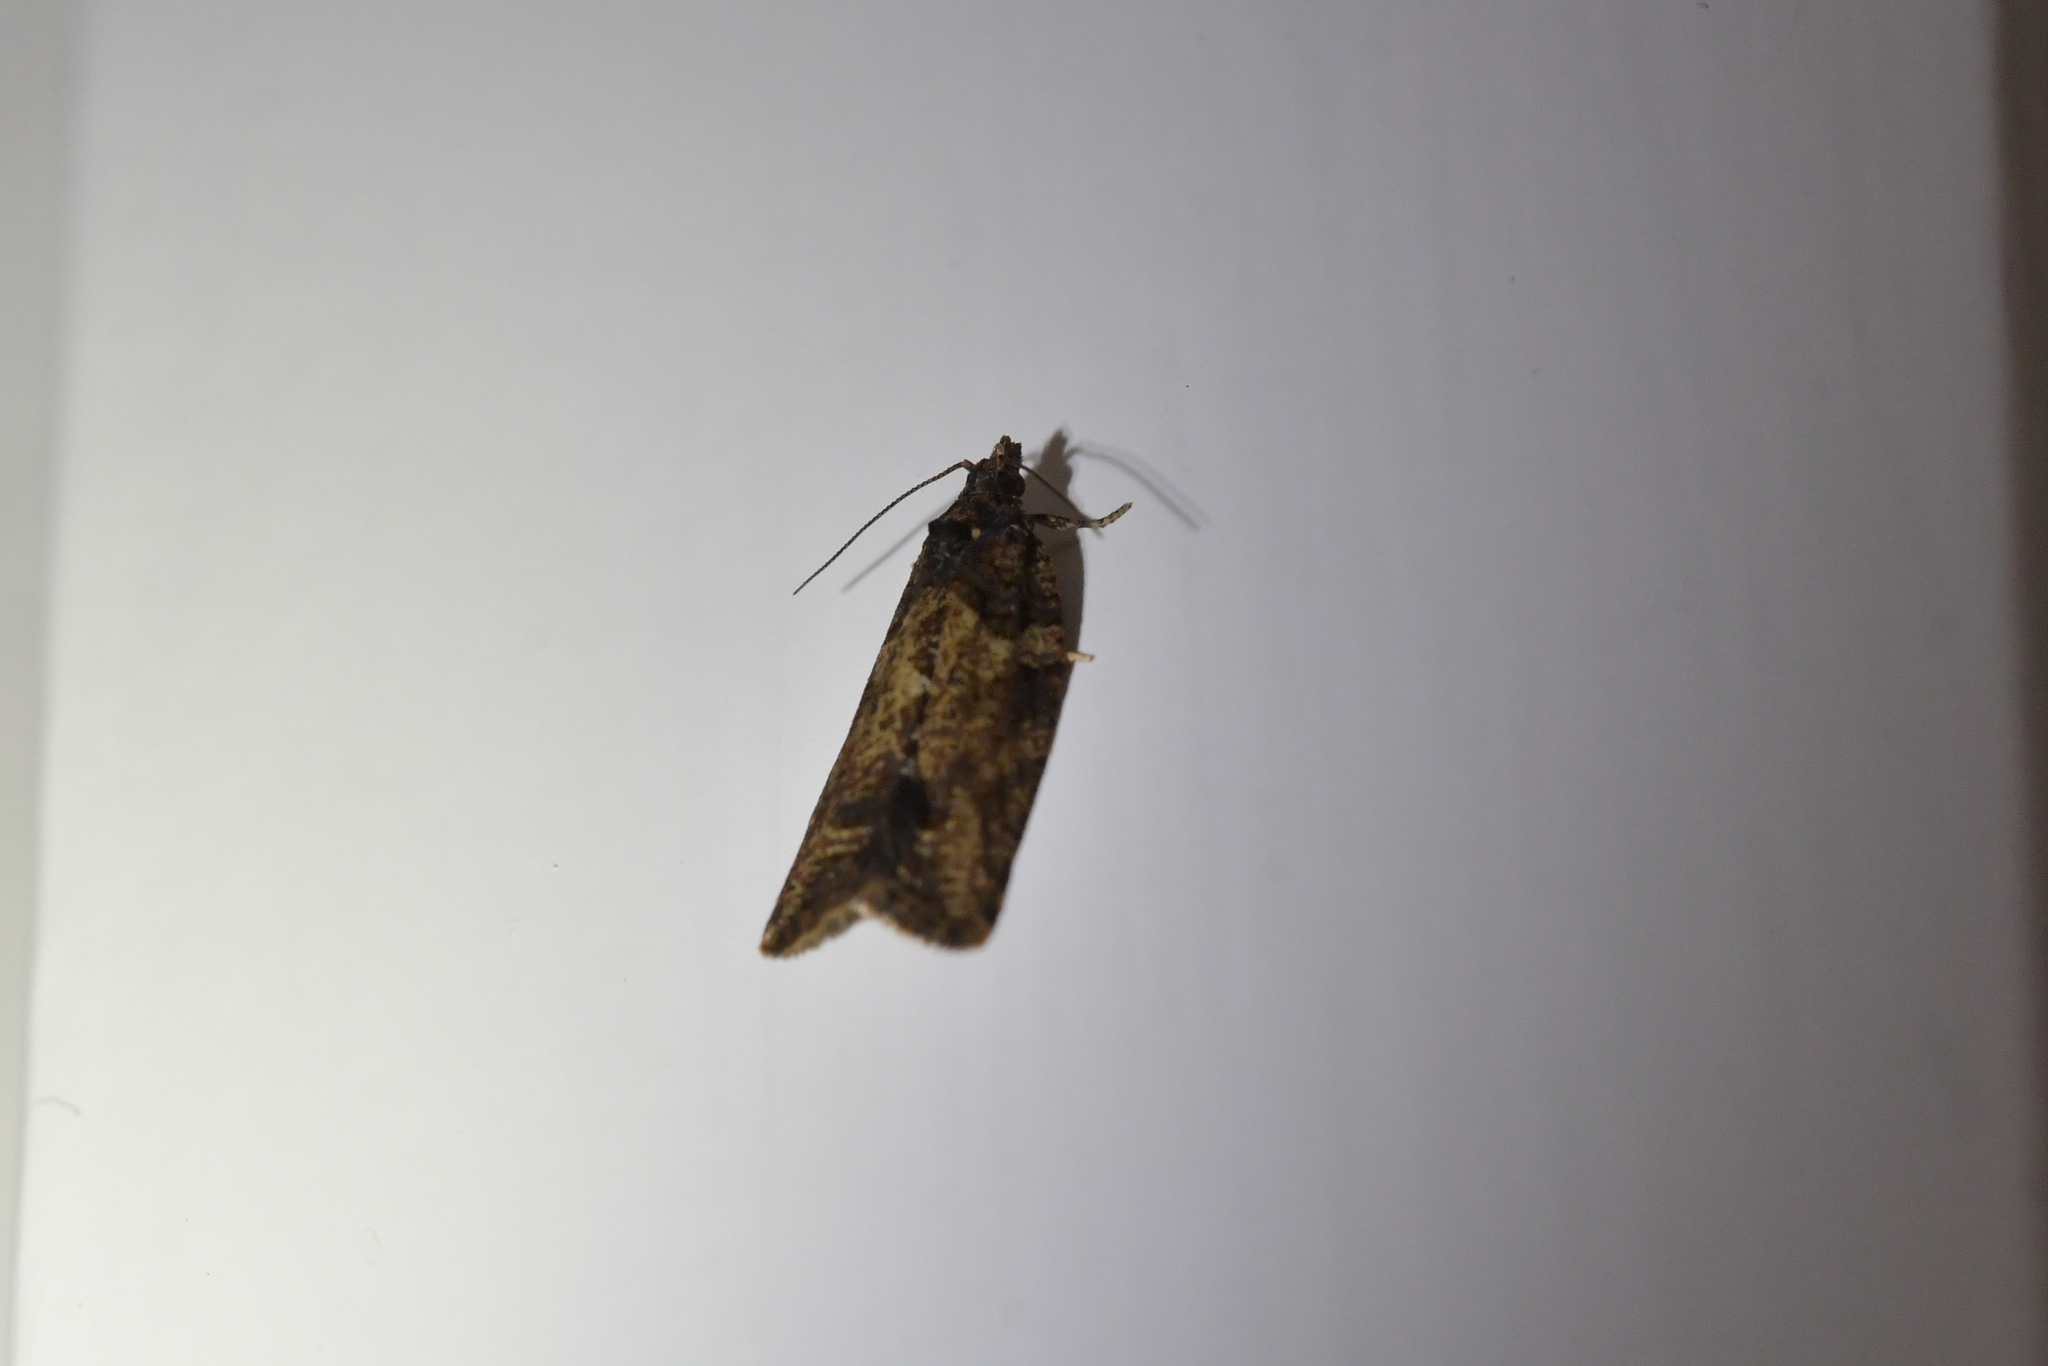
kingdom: Animalia
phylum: Arthropoda
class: Insecta
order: Lepidoptera
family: Tortricidae
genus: Capua
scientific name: Capua intractana
